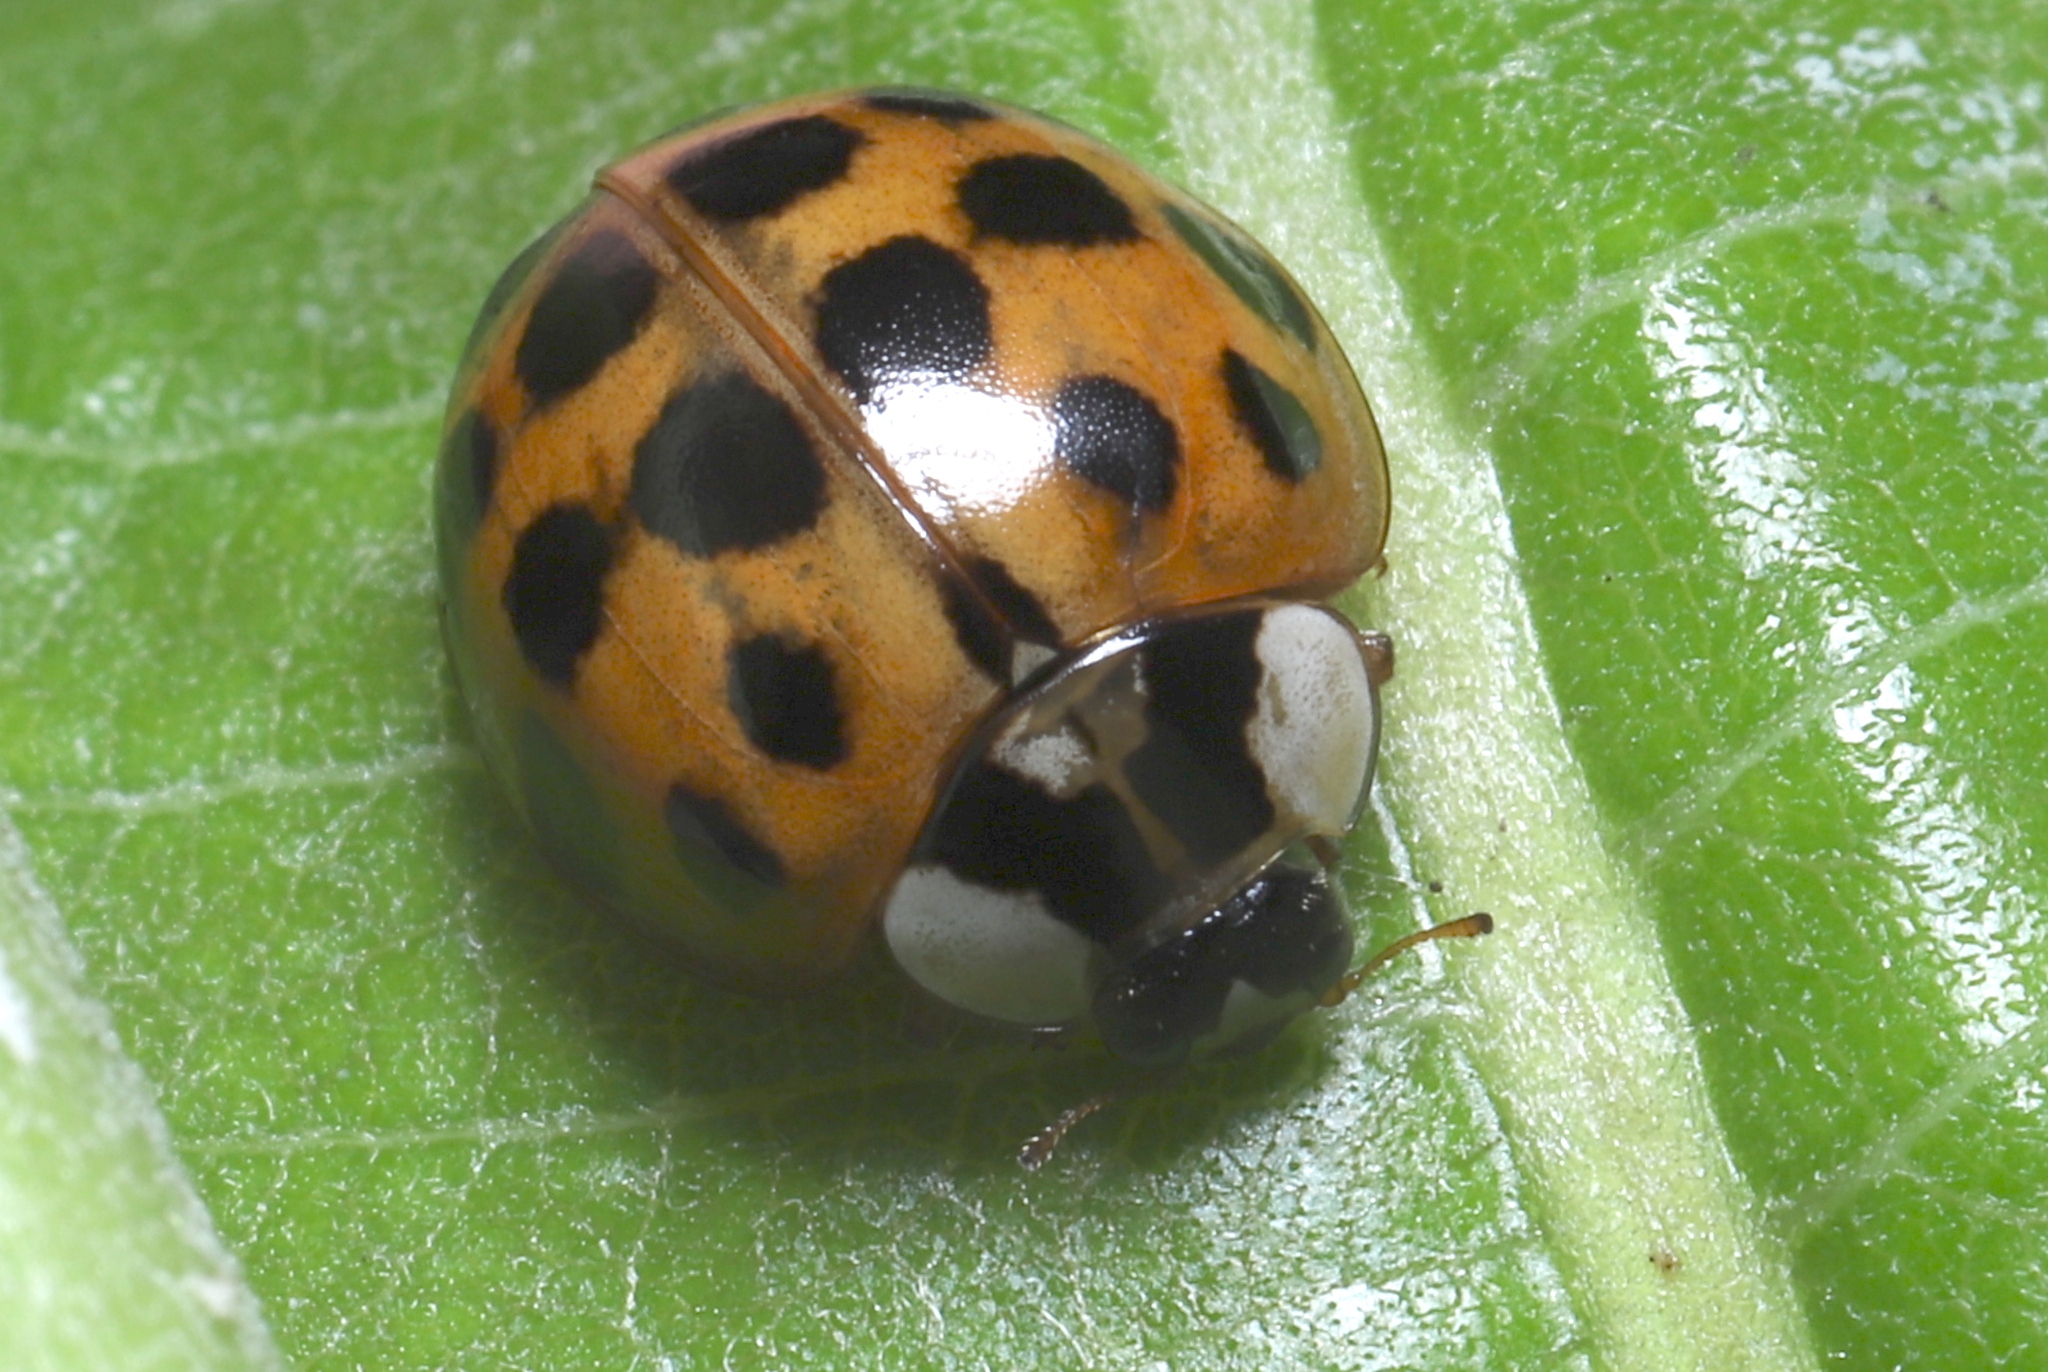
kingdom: Animalia
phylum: Arthropoda
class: Insecta
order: Coleoptera
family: Coccinellidae
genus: Harmonia
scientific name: Harmonia axyridis
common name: Harlequin ladybird
